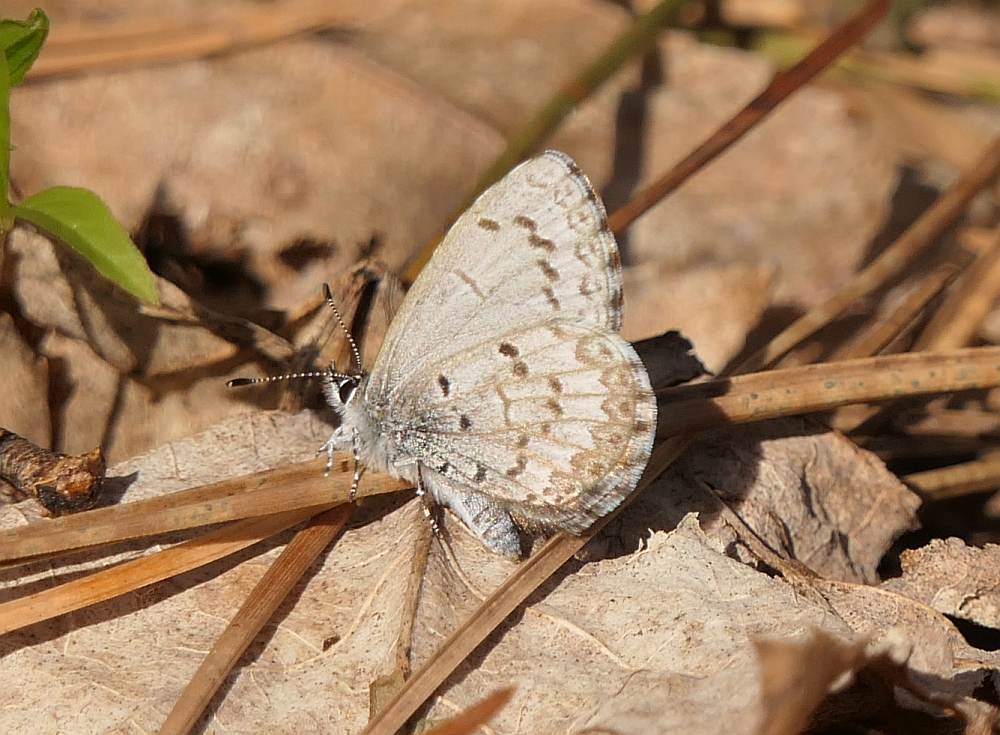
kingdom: Animalia
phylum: Arthropoda
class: Insecta
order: Lepidoptera
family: Lycaenidae
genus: Celastrina
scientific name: Celastrina lucia
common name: Lucia azure
